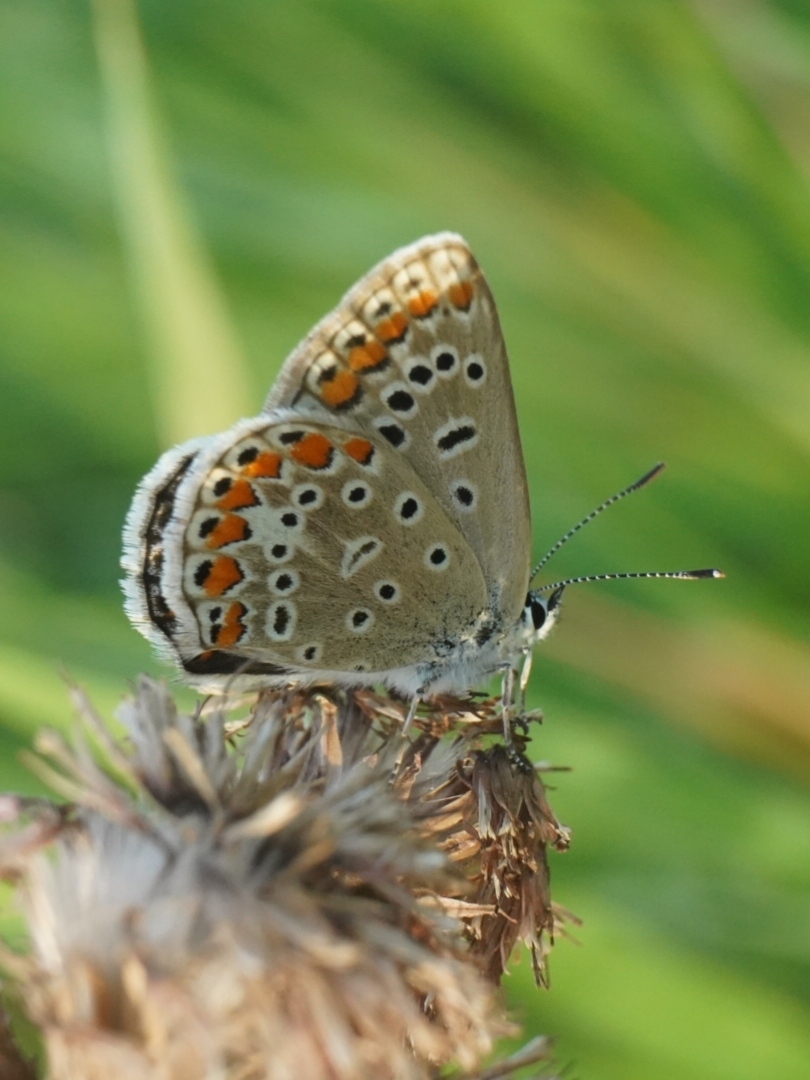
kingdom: Animalia
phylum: Arthropoda
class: Insecta
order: Lepidoptera
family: Lycaenidae
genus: Polyommatus
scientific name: Polyommatus icarus
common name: Common blue
